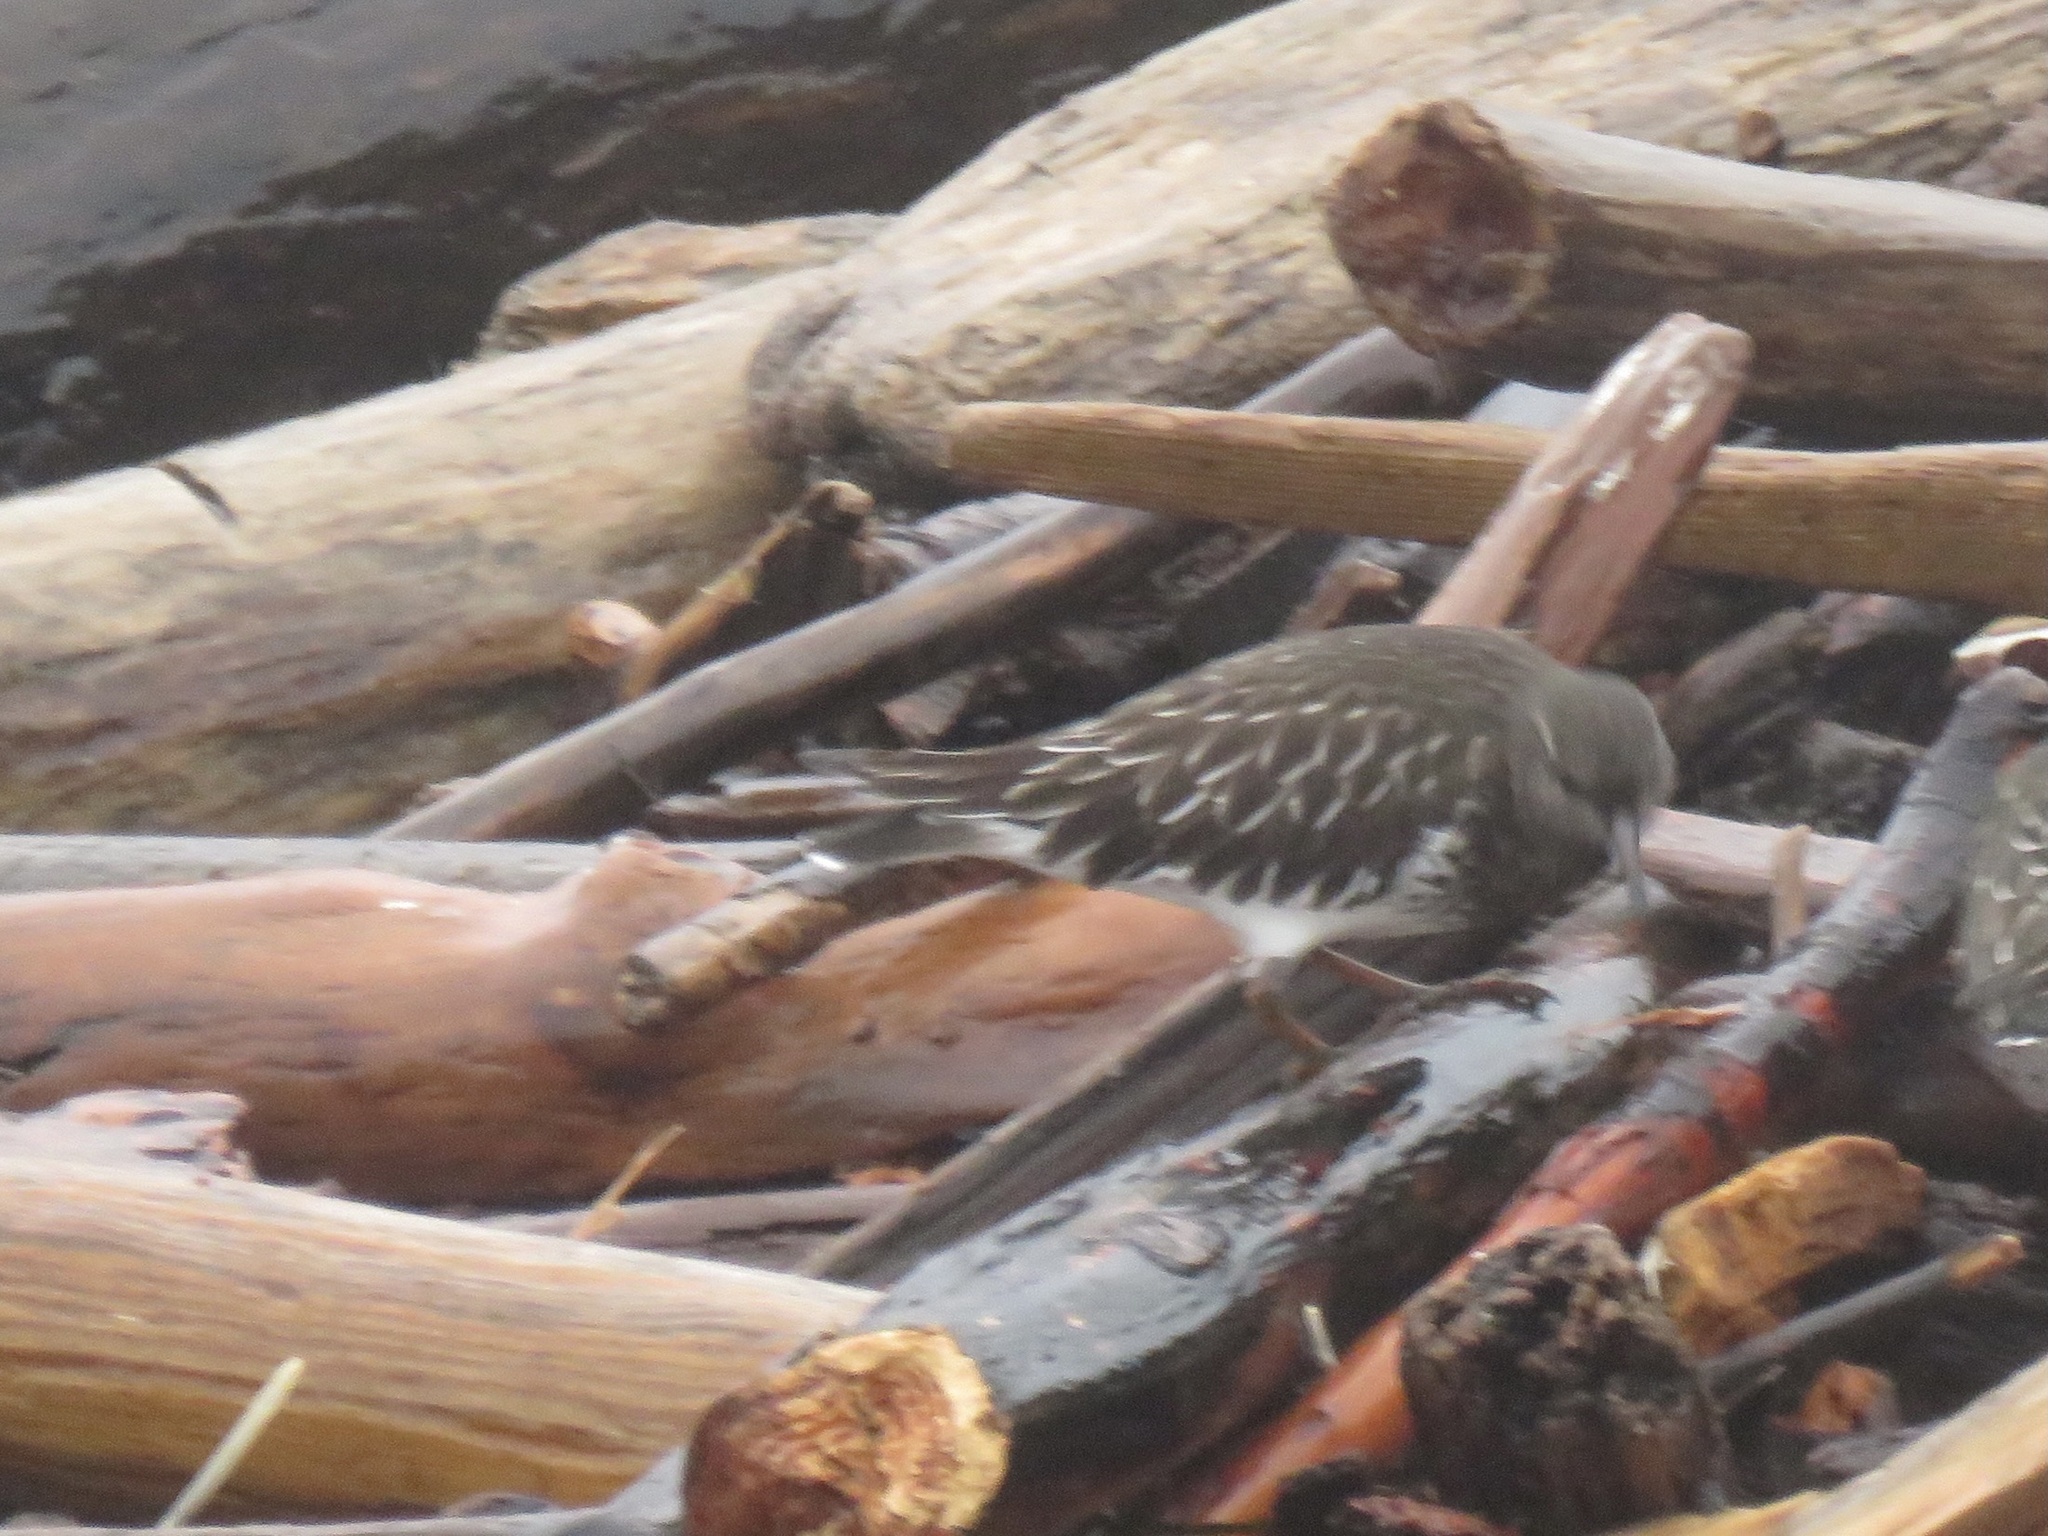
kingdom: Animalia
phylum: Chordata
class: Aves
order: Charadriiformes
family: Scolopacidae
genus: Arenaria
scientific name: Arenaria melanocephala
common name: Black turnstone
